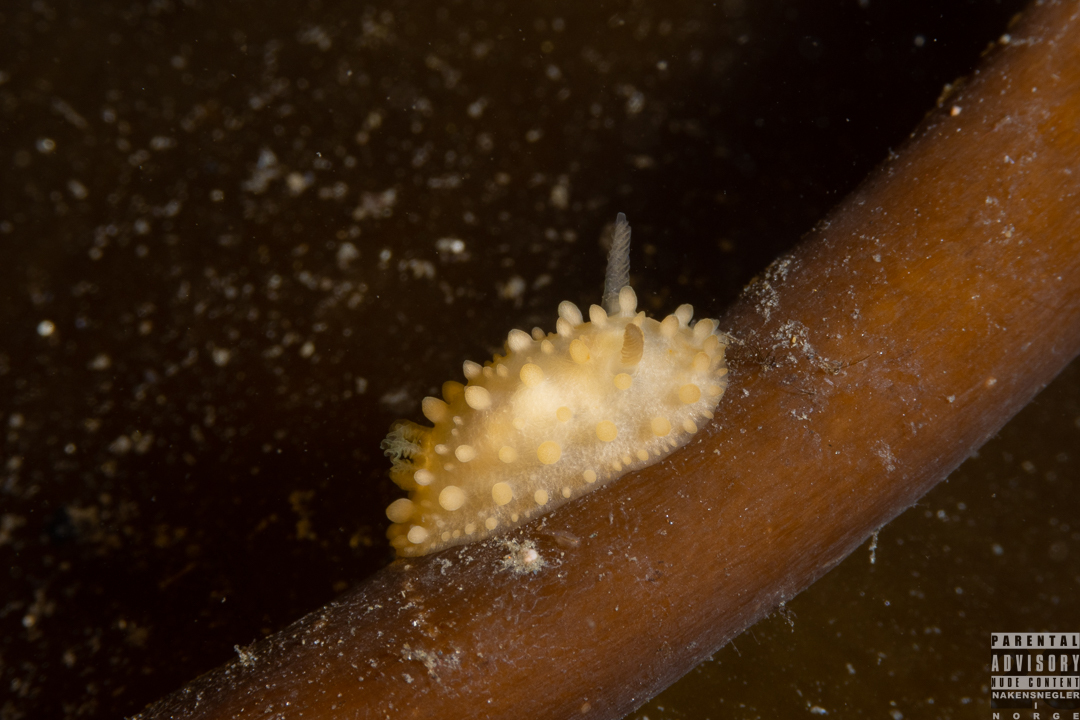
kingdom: Animalia
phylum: Mollusca
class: Gastropoda
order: Nudibranchia
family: Onchidorididae
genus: Adalaria
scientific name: Adalaria proxima
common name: False doris
